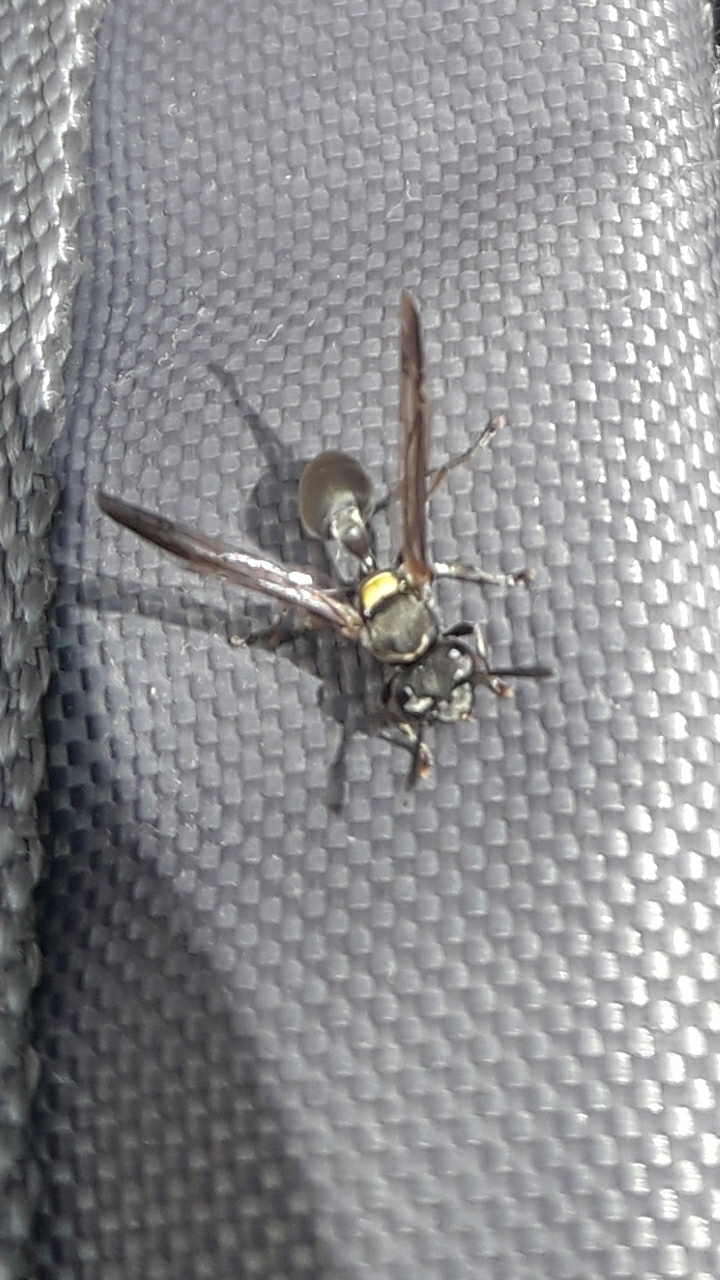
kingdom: Animalia
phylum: Arthropoda
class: Insecta
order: Hymenoptera
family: Eumenidae
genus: Polybia
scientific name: Polybia scutellaris
